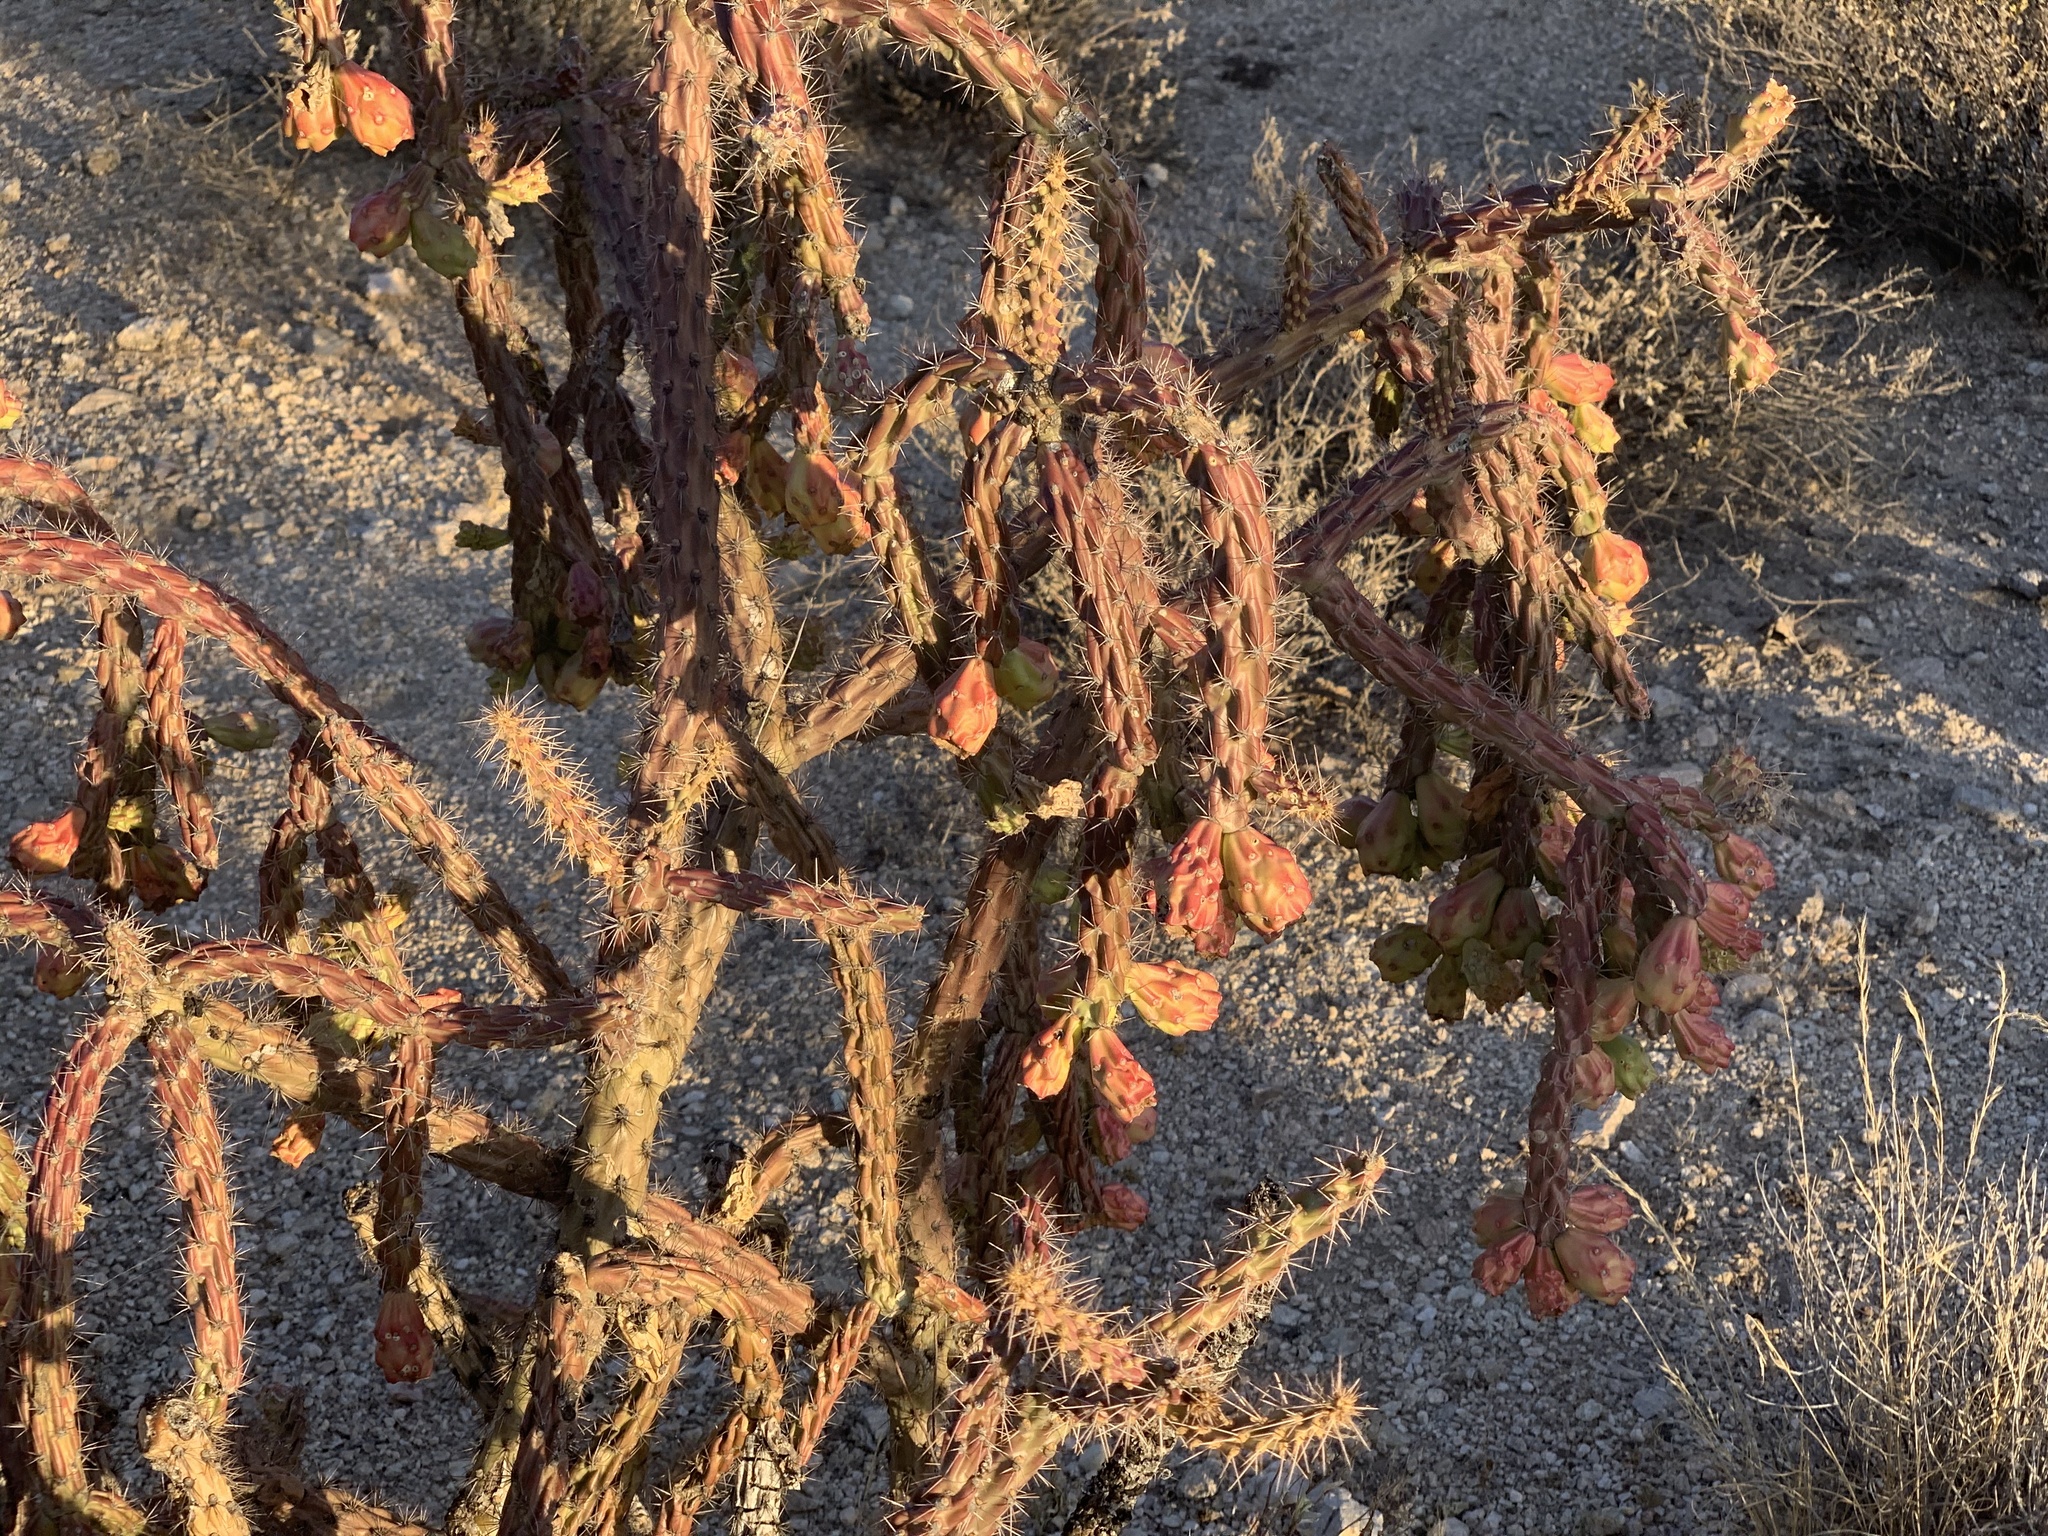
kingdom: Plantae
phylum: Tracheophyta
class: Magnoliopsida
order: Caryophyllales
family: Cactaceae
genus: Cylindropuntia
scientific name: Cylindropuntia thurberi
